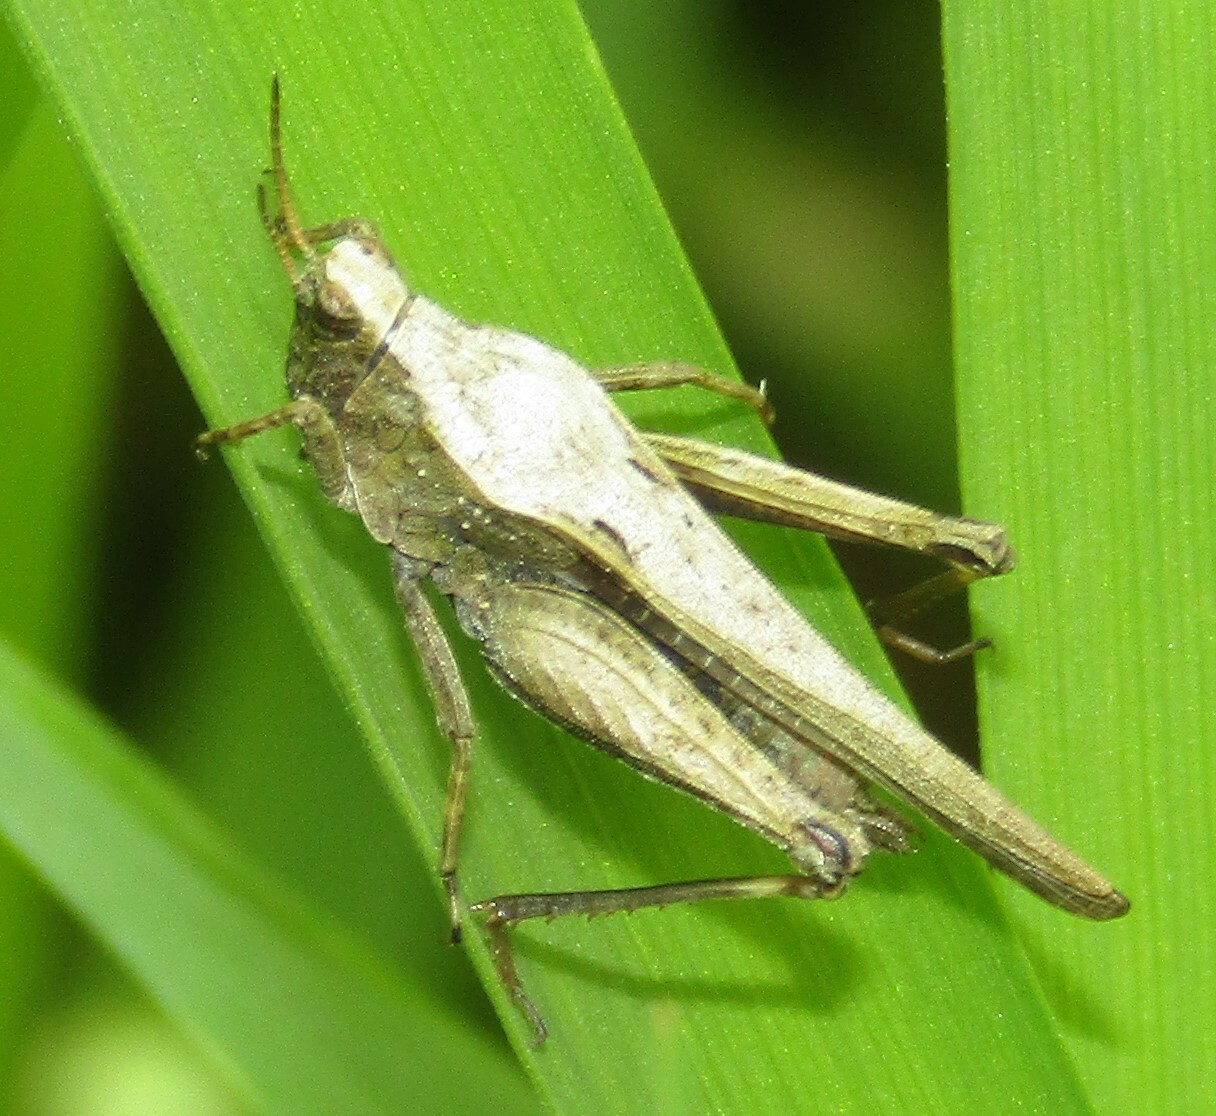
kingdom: Animalia
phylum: Arthropoda
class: Insecta
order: Orthoptera
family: Tetrigidae
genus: Tetrix
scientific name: Tetrix subulata
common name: Slender ground-hopper
